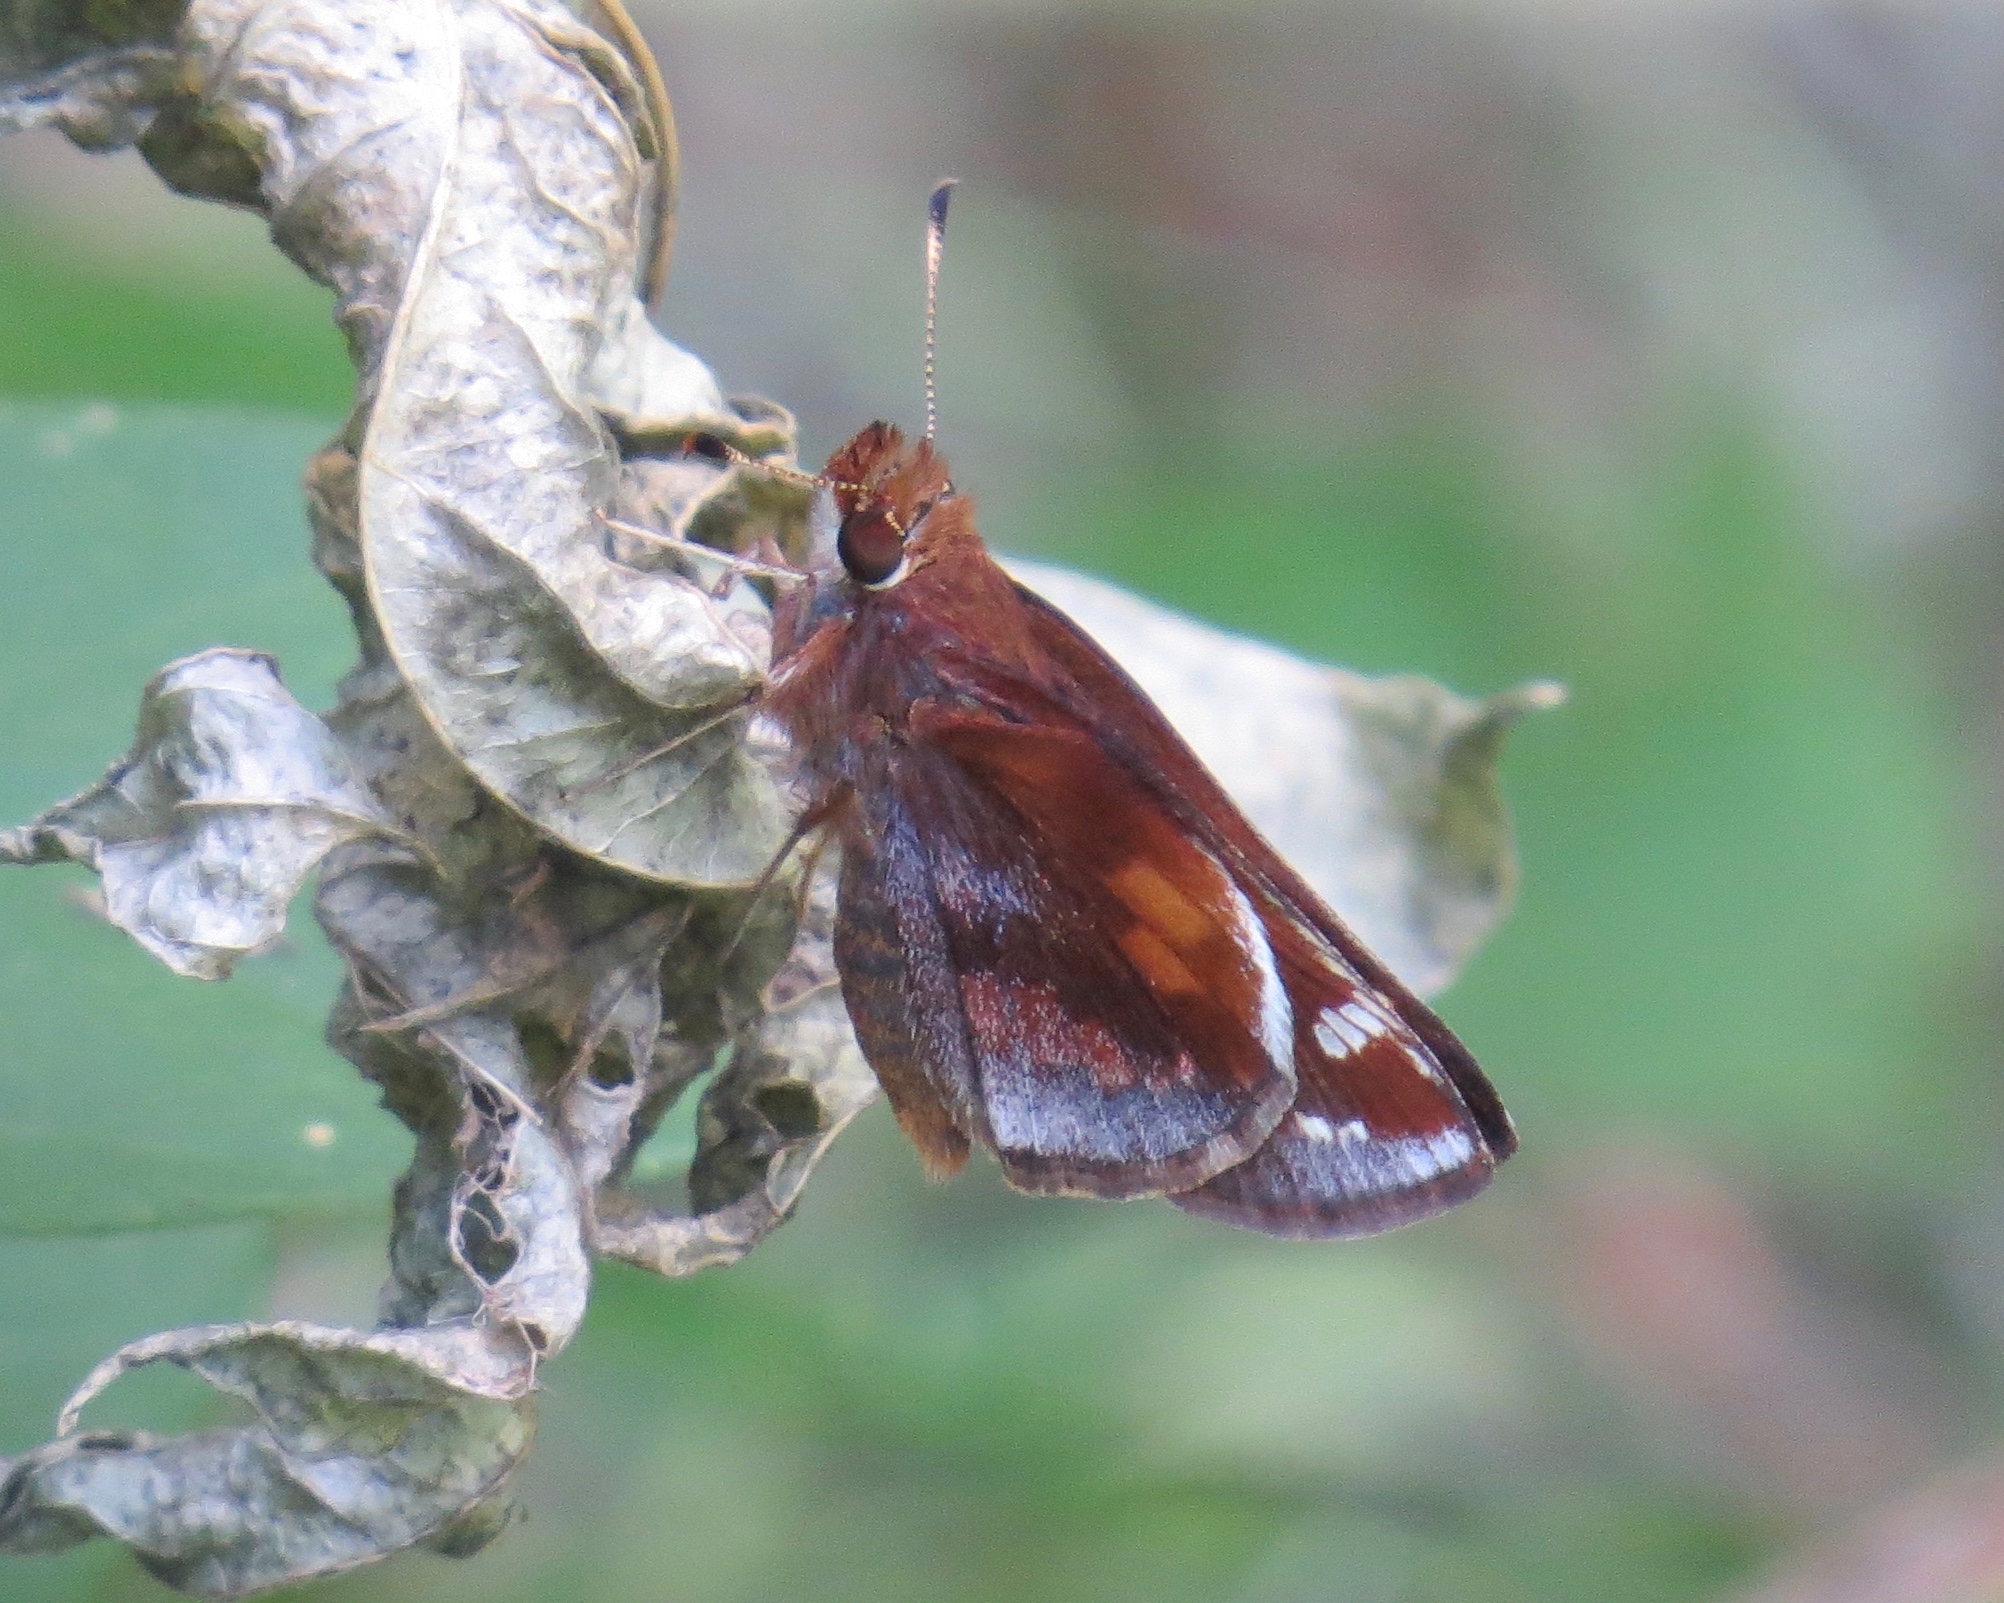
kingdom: Animalia
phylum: Arthropoda
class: Insecta
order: Lepidoptera
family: Hesperiidae
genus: Lon
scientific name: Lon zabulon
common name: Zabulon skipper
